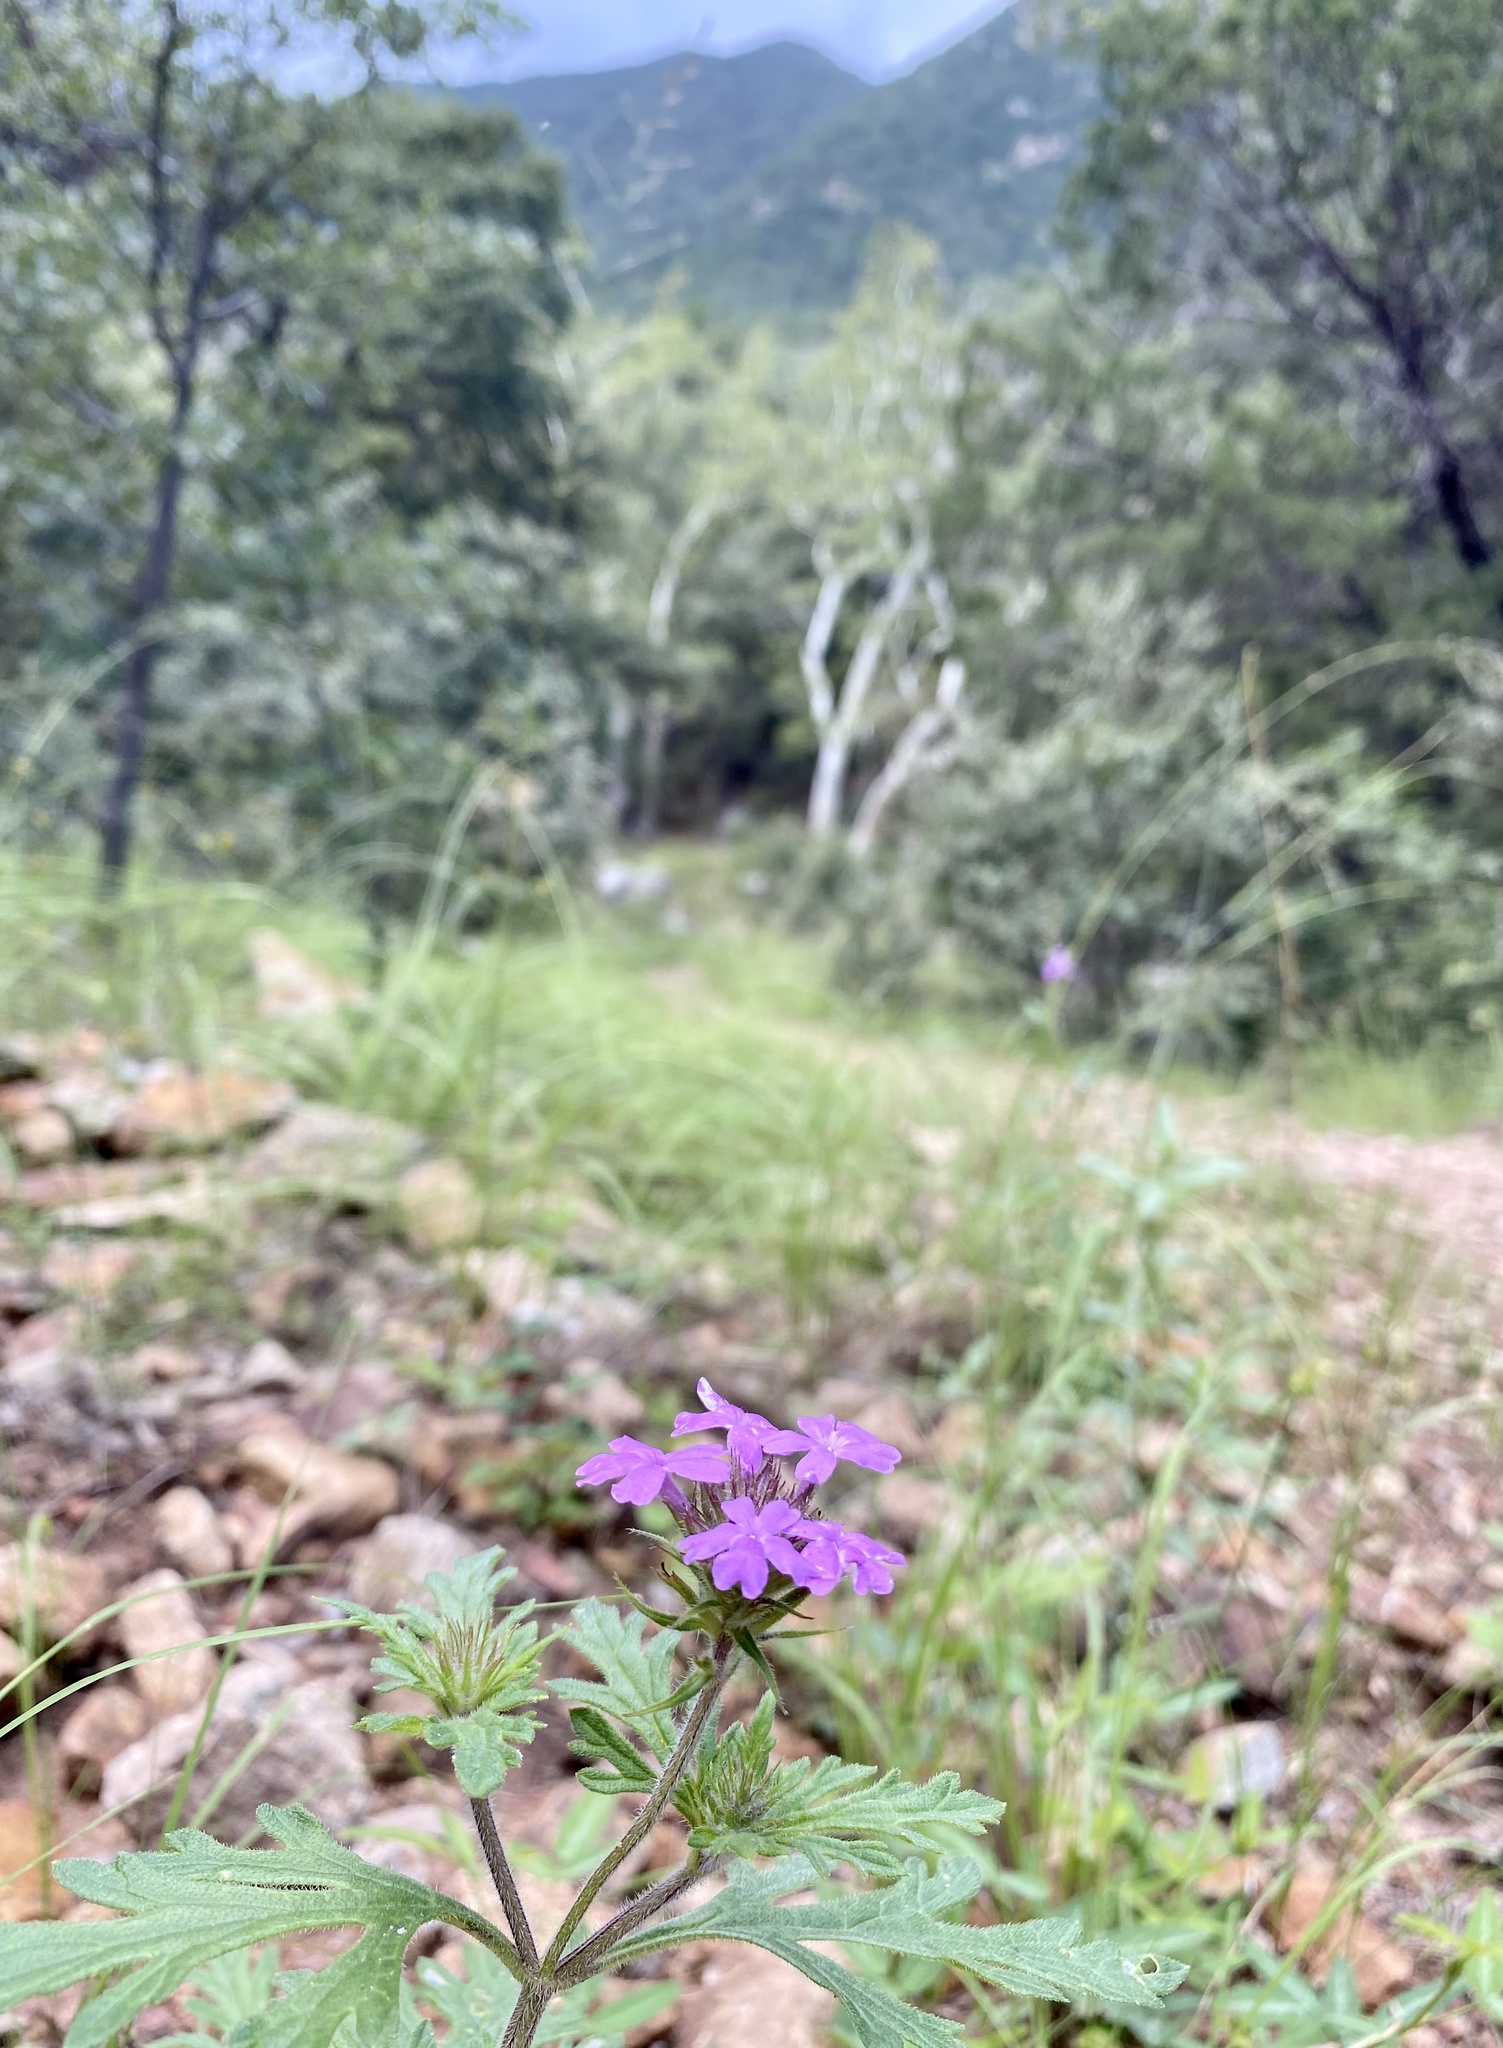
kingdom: Plantae
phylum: Tracheophyta
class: Magnoliopsida
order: Lamiales
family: Verbenaceae
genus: Verbena
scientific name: Verbena chiricahensis
